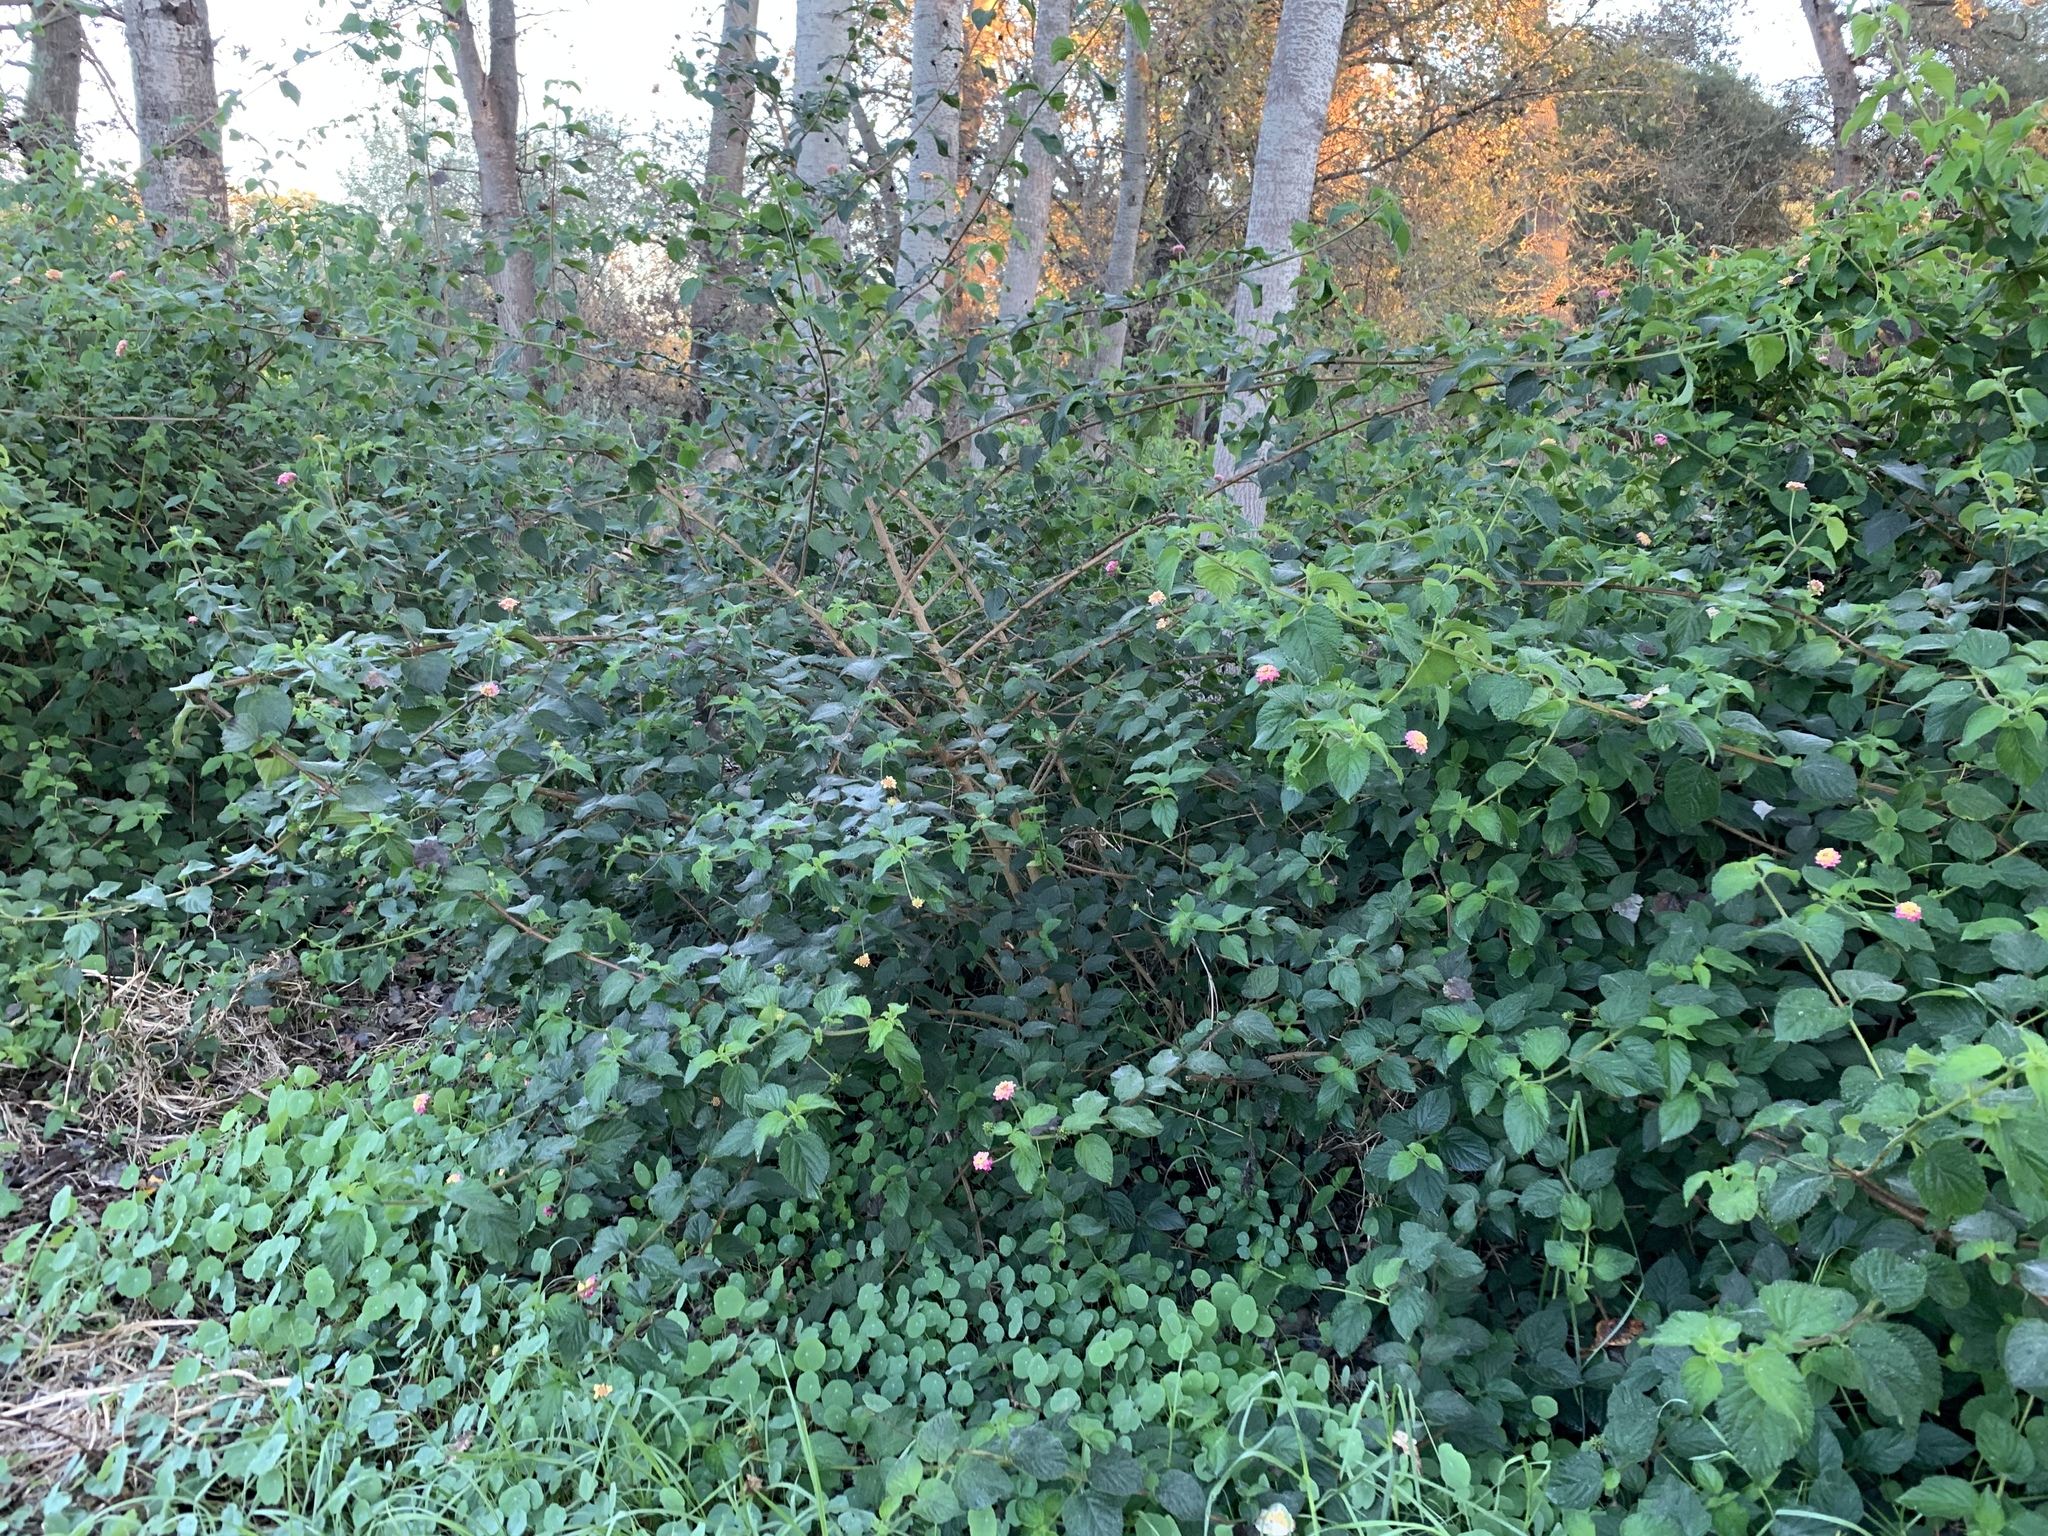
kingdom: Plantae
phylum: Tracheophyta
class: Magnoliopsida
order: Lamiales
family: Verbenaceae
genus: Lantana
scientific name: Lantana camara
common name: Lantana
